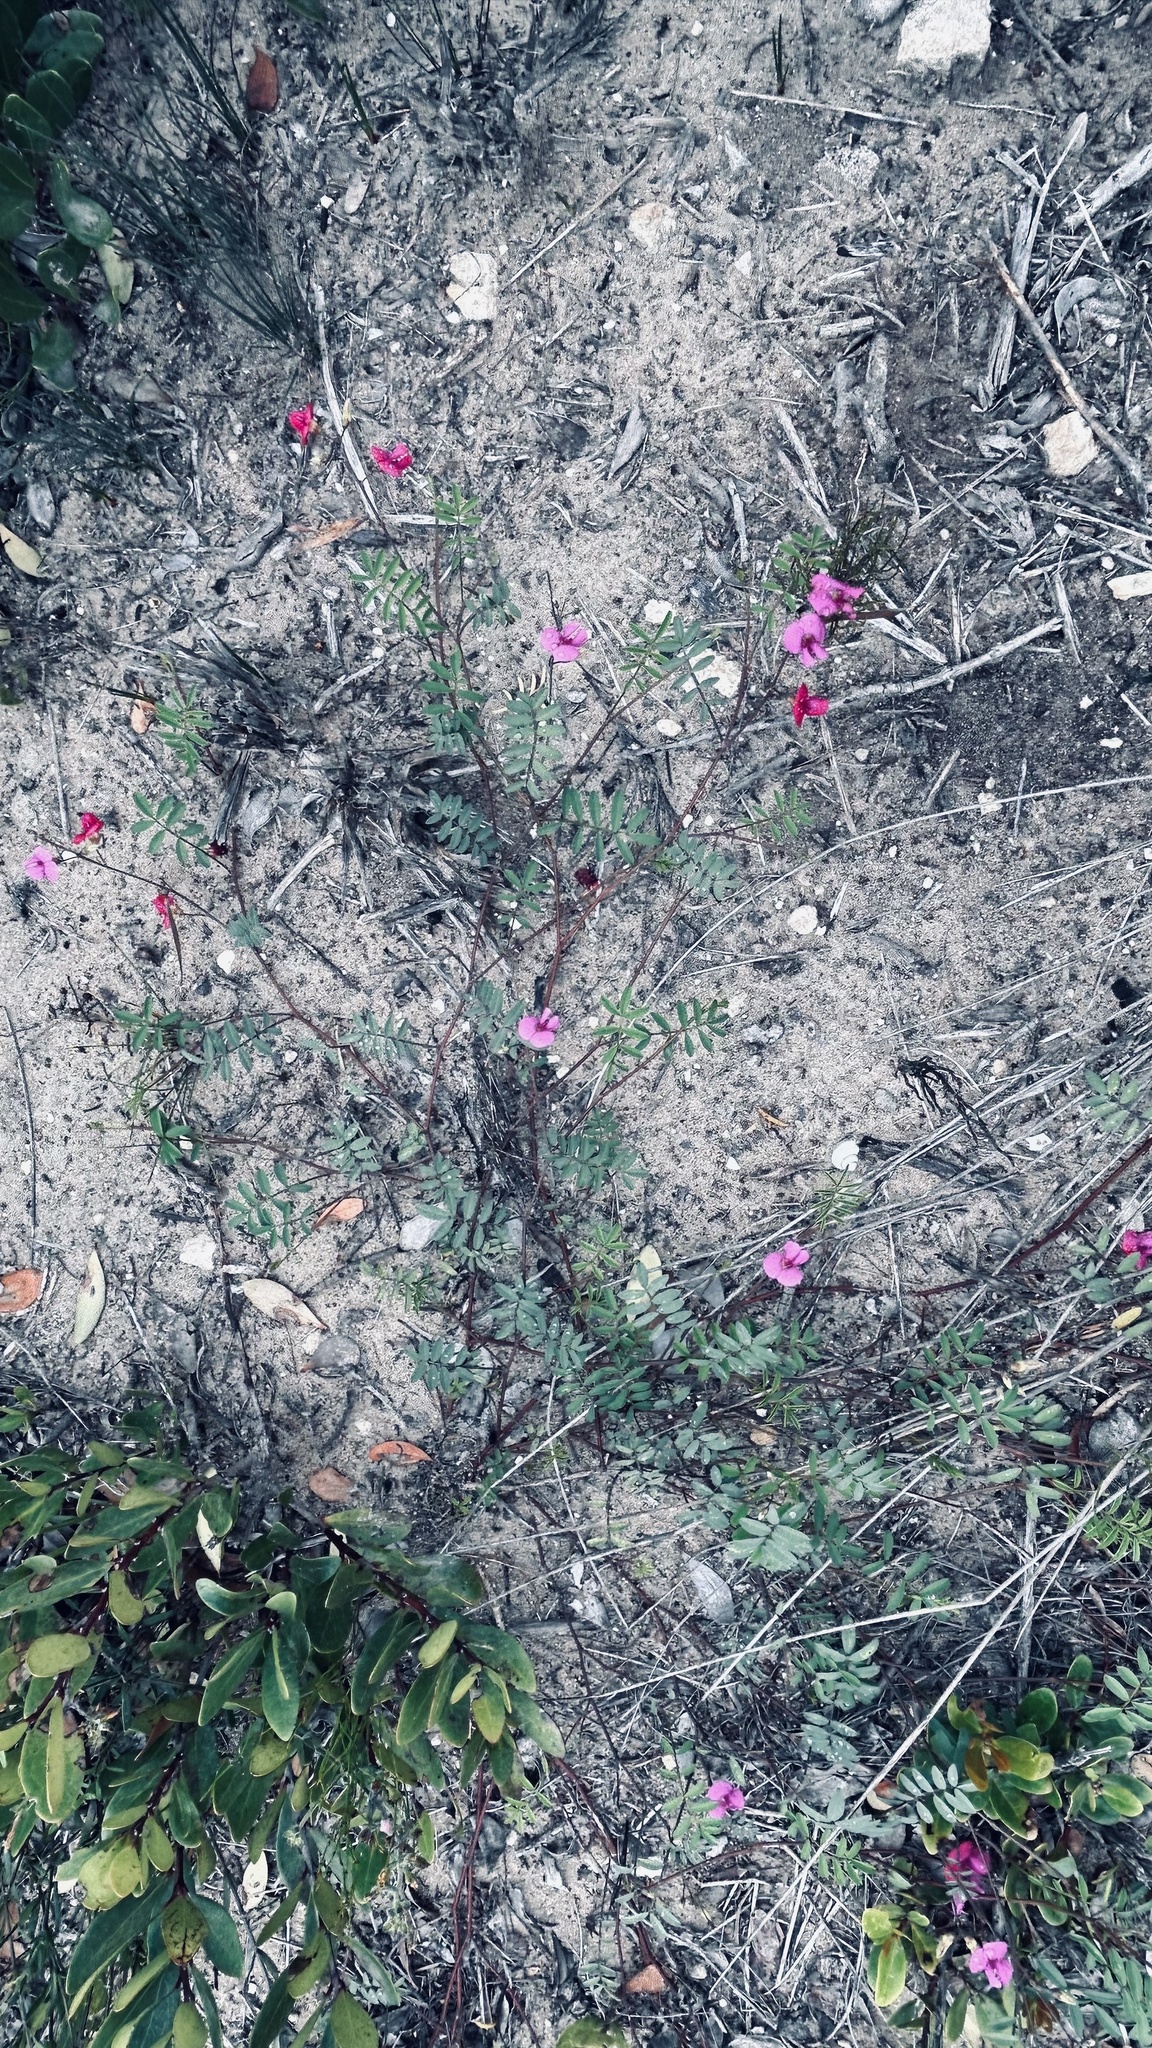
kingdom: Plantae
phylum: Tracheophyta
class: Magnoliopsida
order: Fabales
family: Fabaceae
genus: Tephrosia
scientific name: Tephrosia capensis
